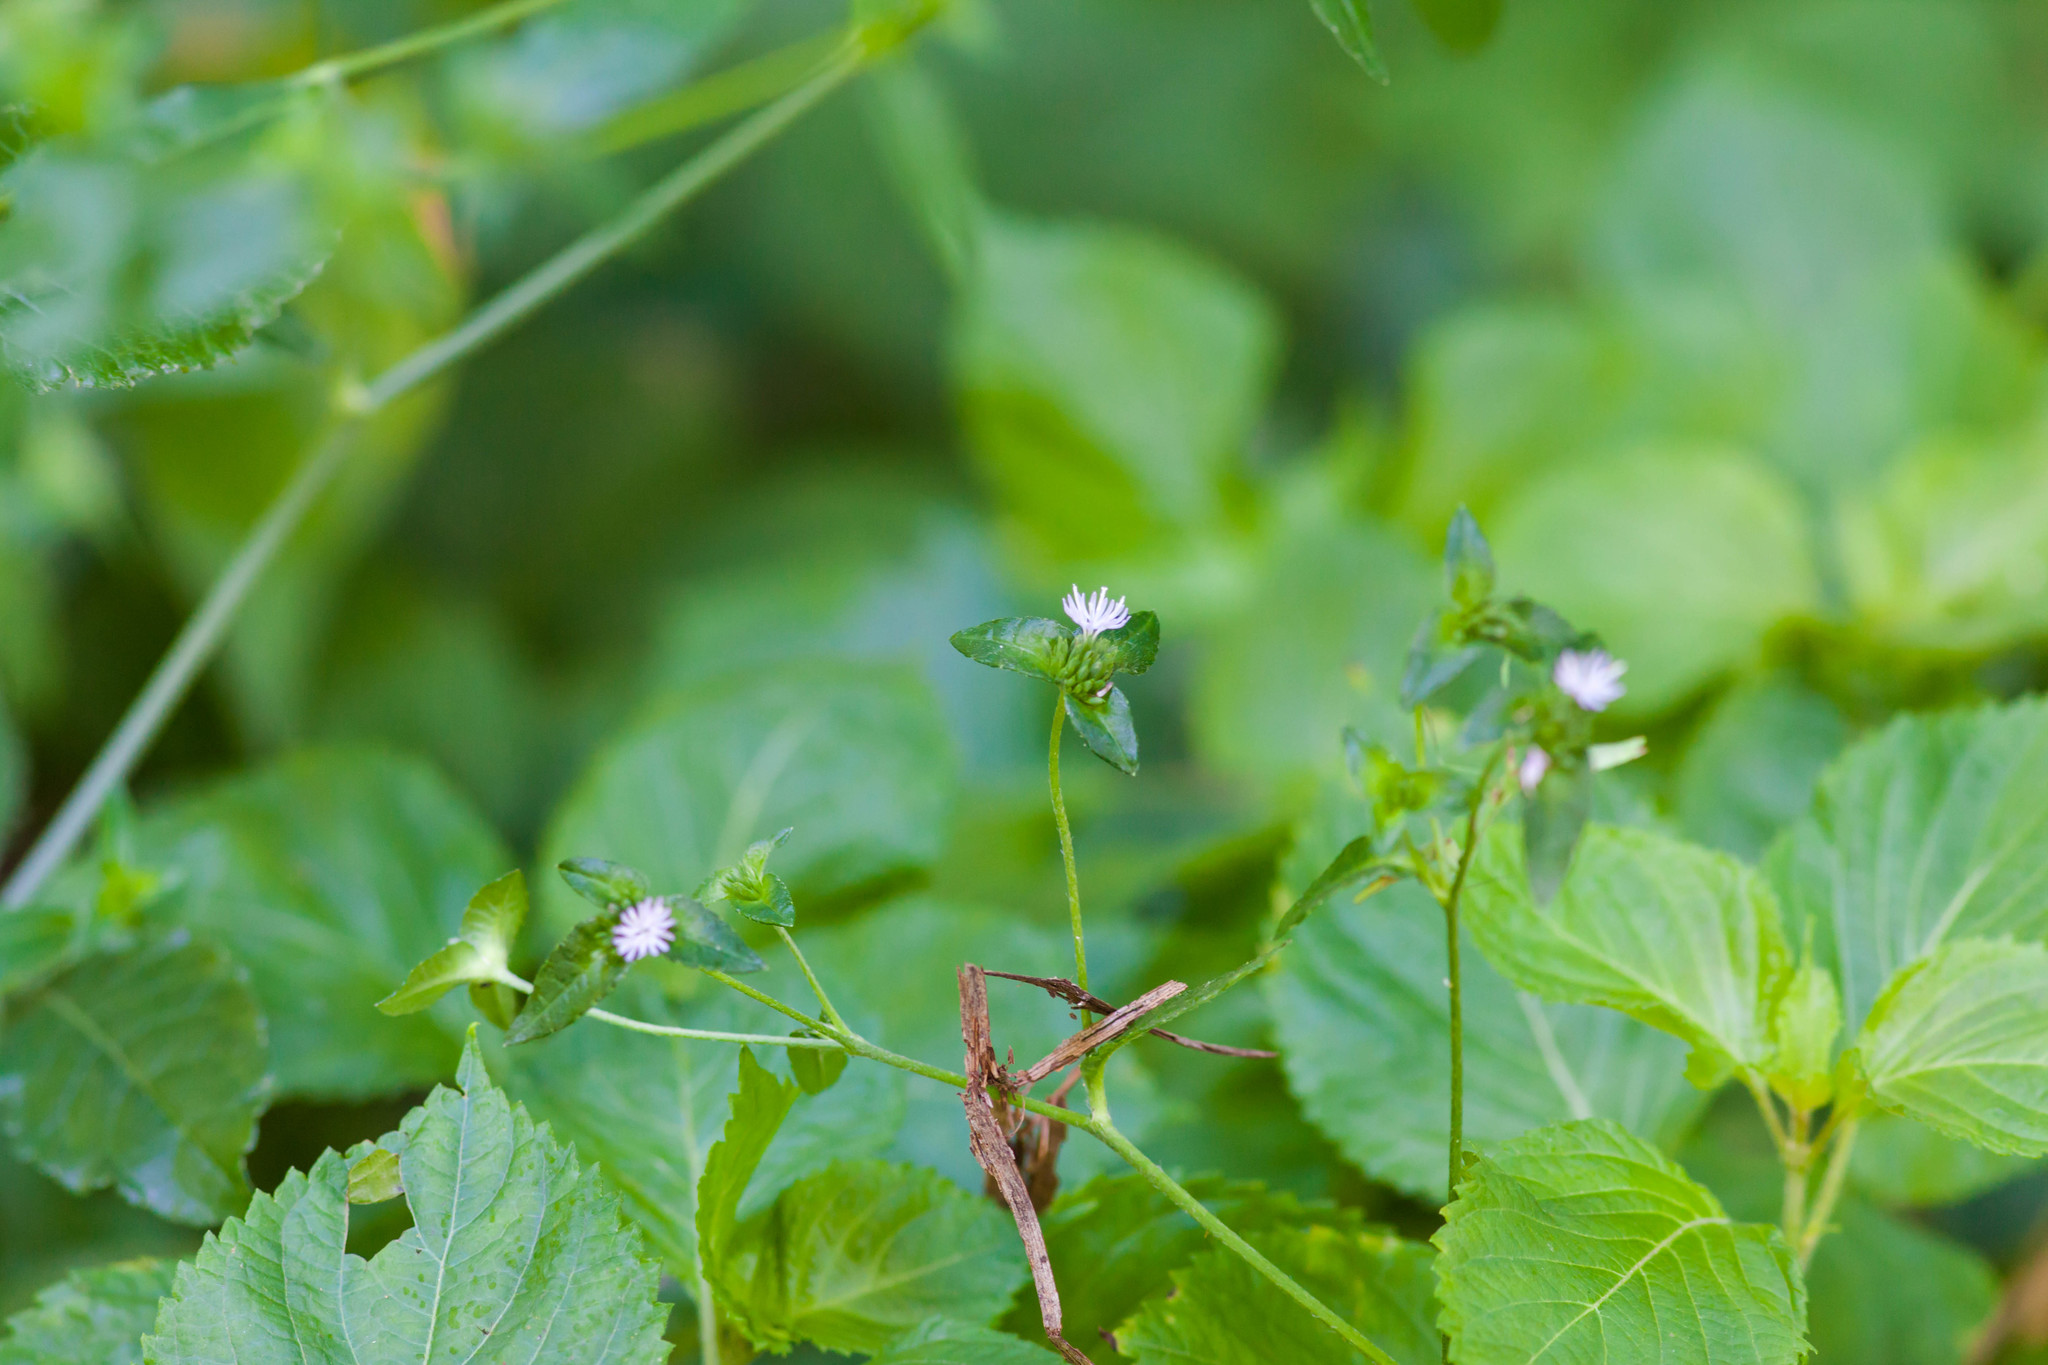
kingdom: Plantae
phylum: Tracheophyta
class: Magnoliopsida
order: Asterales
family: Asteraceae
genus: Elephantopus
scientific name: Elephantopus carolinianus
